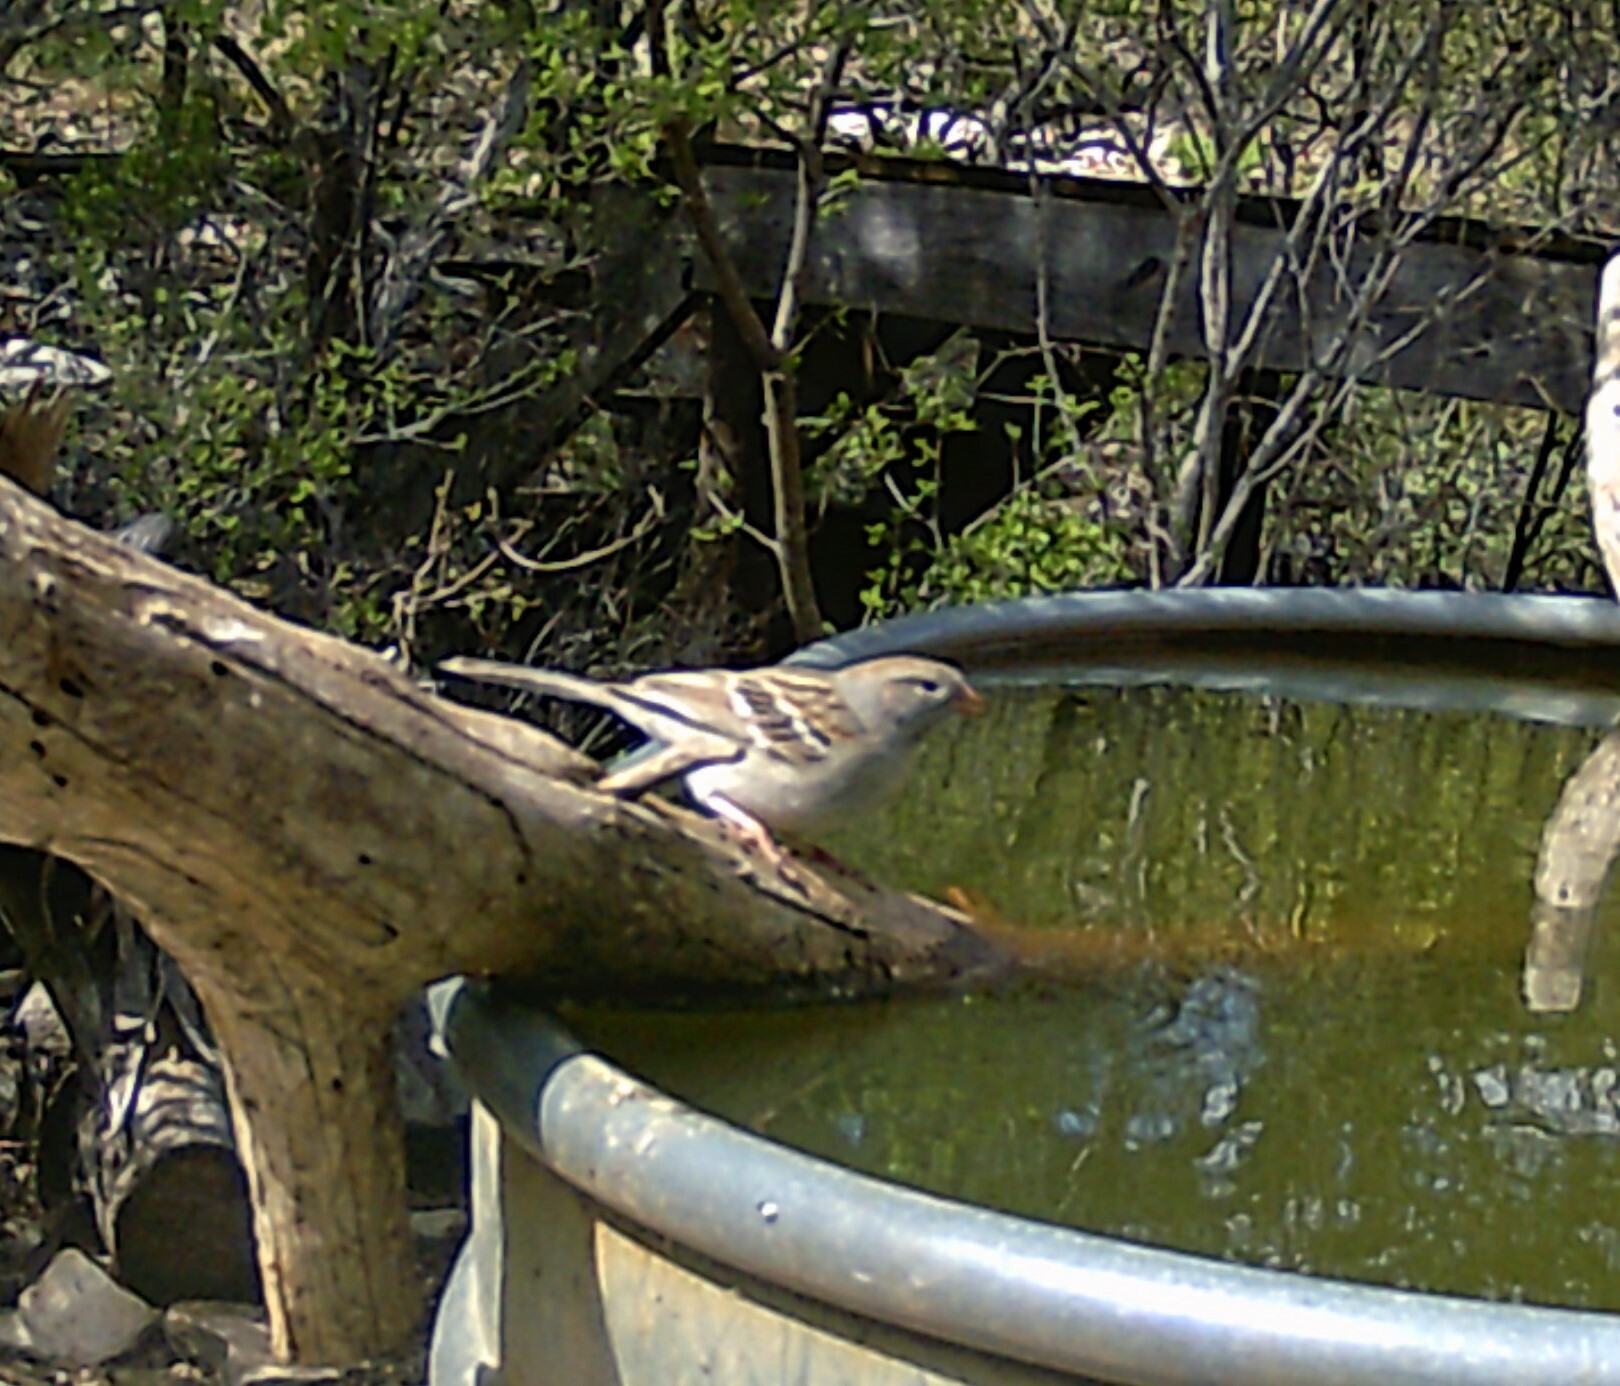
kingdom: Animalia
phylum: Chordata
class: Aves
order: Passeriformes
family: Passerellidae
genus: Spizella
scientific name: Spizella pusilla
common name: Field sparrow
